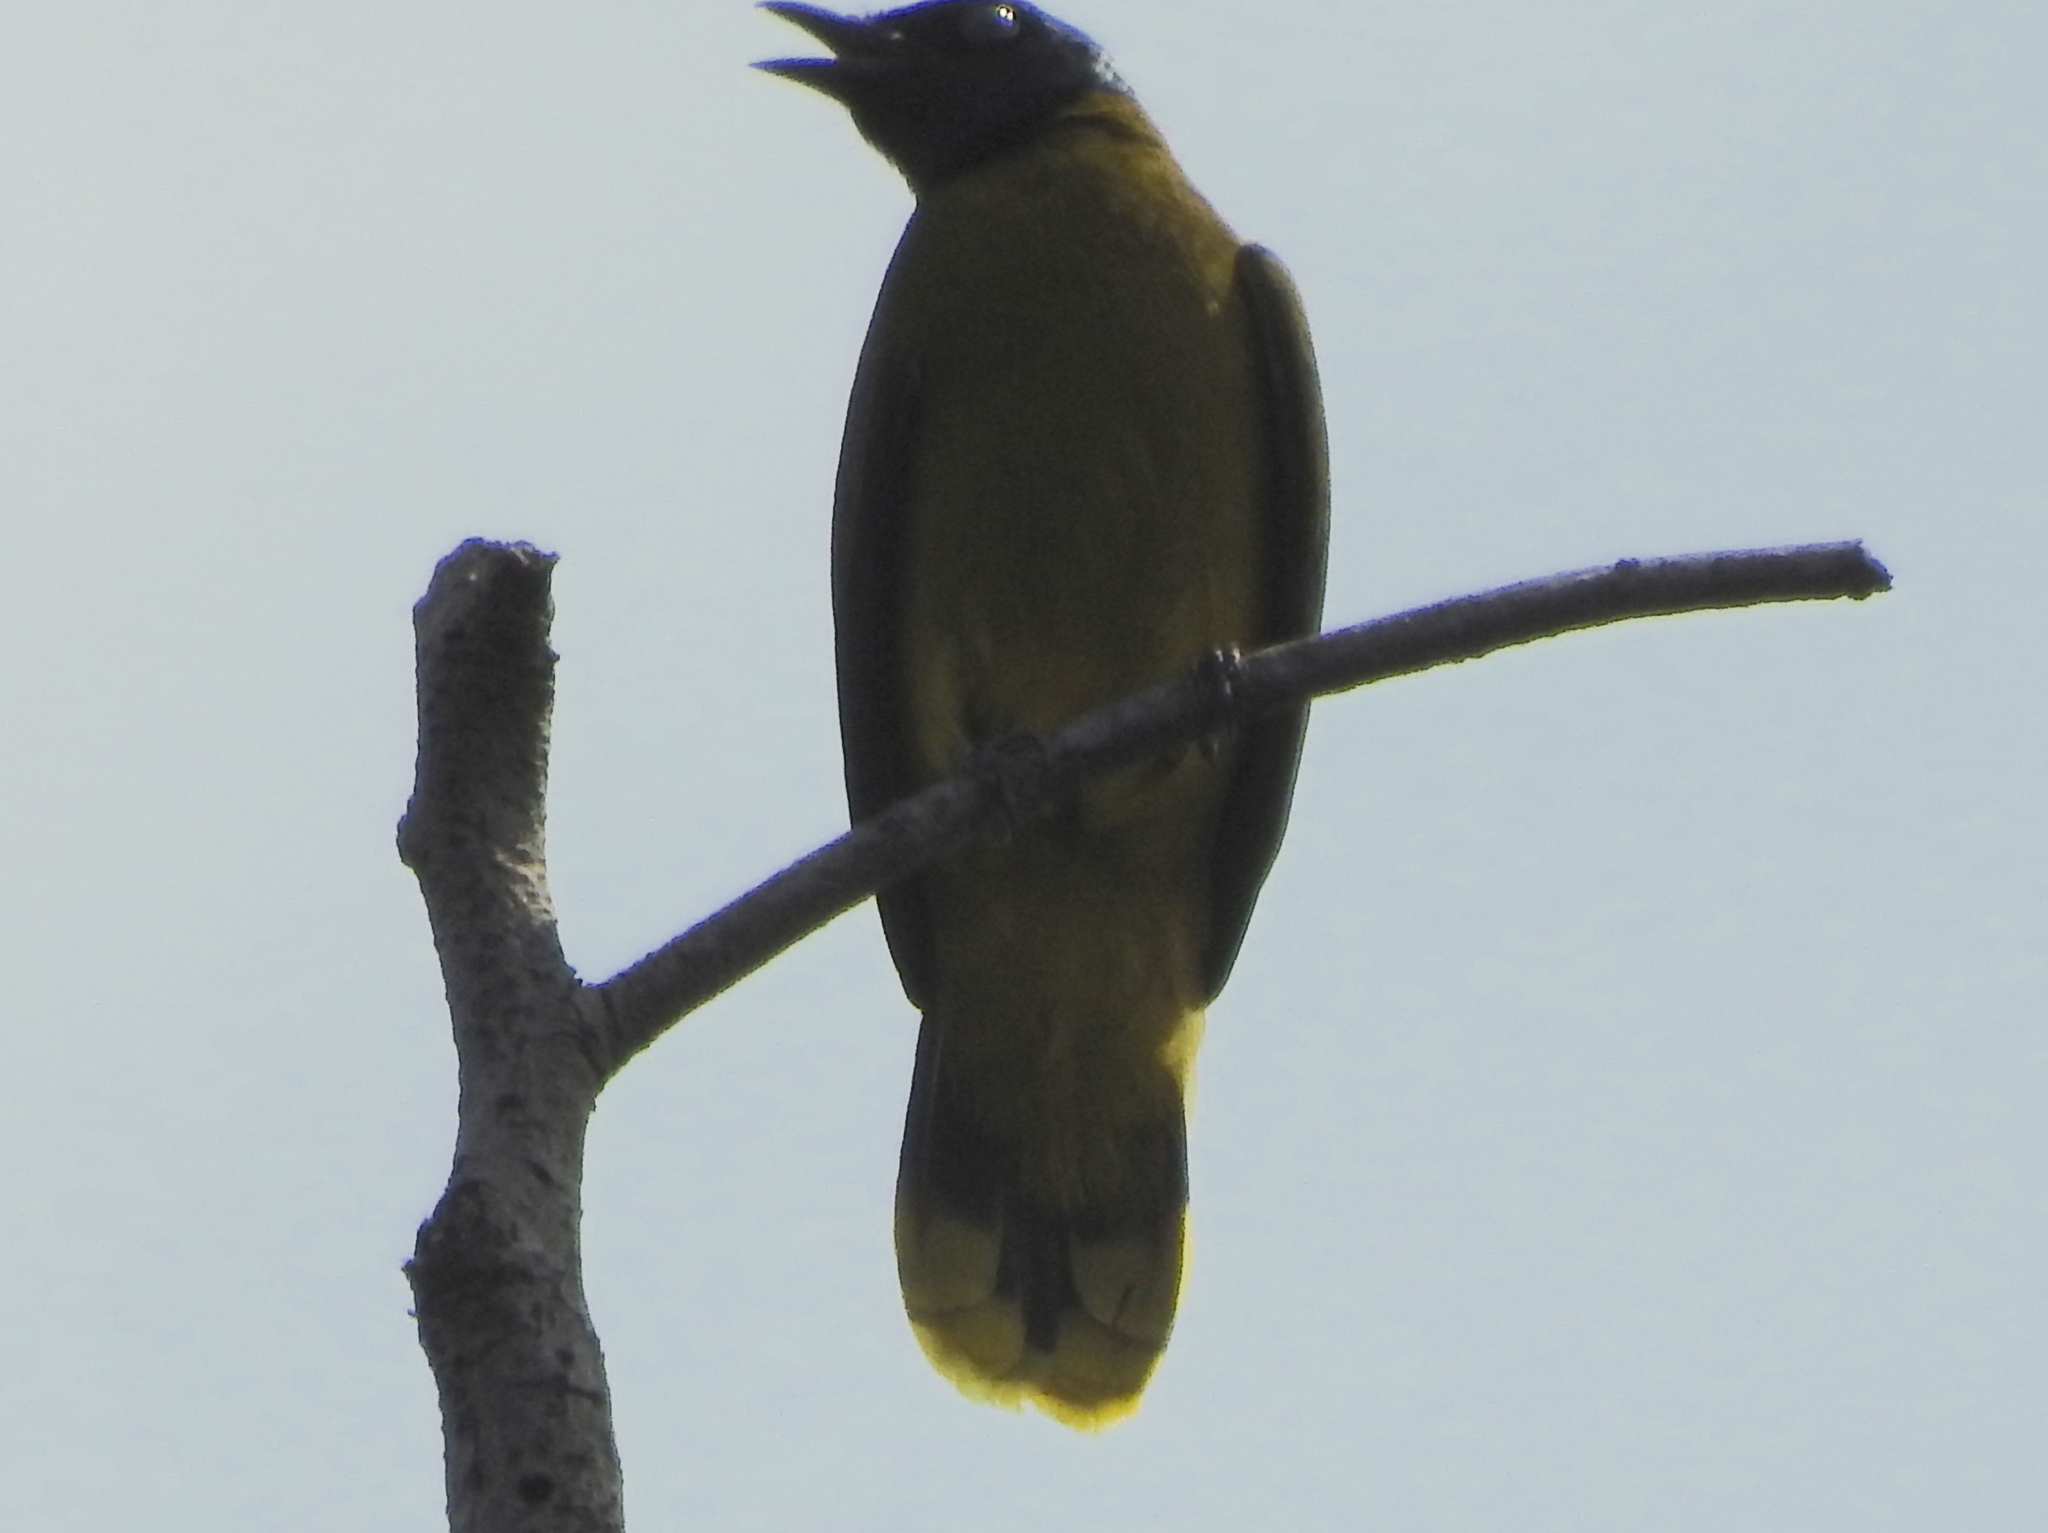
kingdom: Animalia
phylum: Chordata
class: Aves
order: Passeriformes
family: Pycnonotidae
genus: Microtarsus
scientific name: Microtarsus
